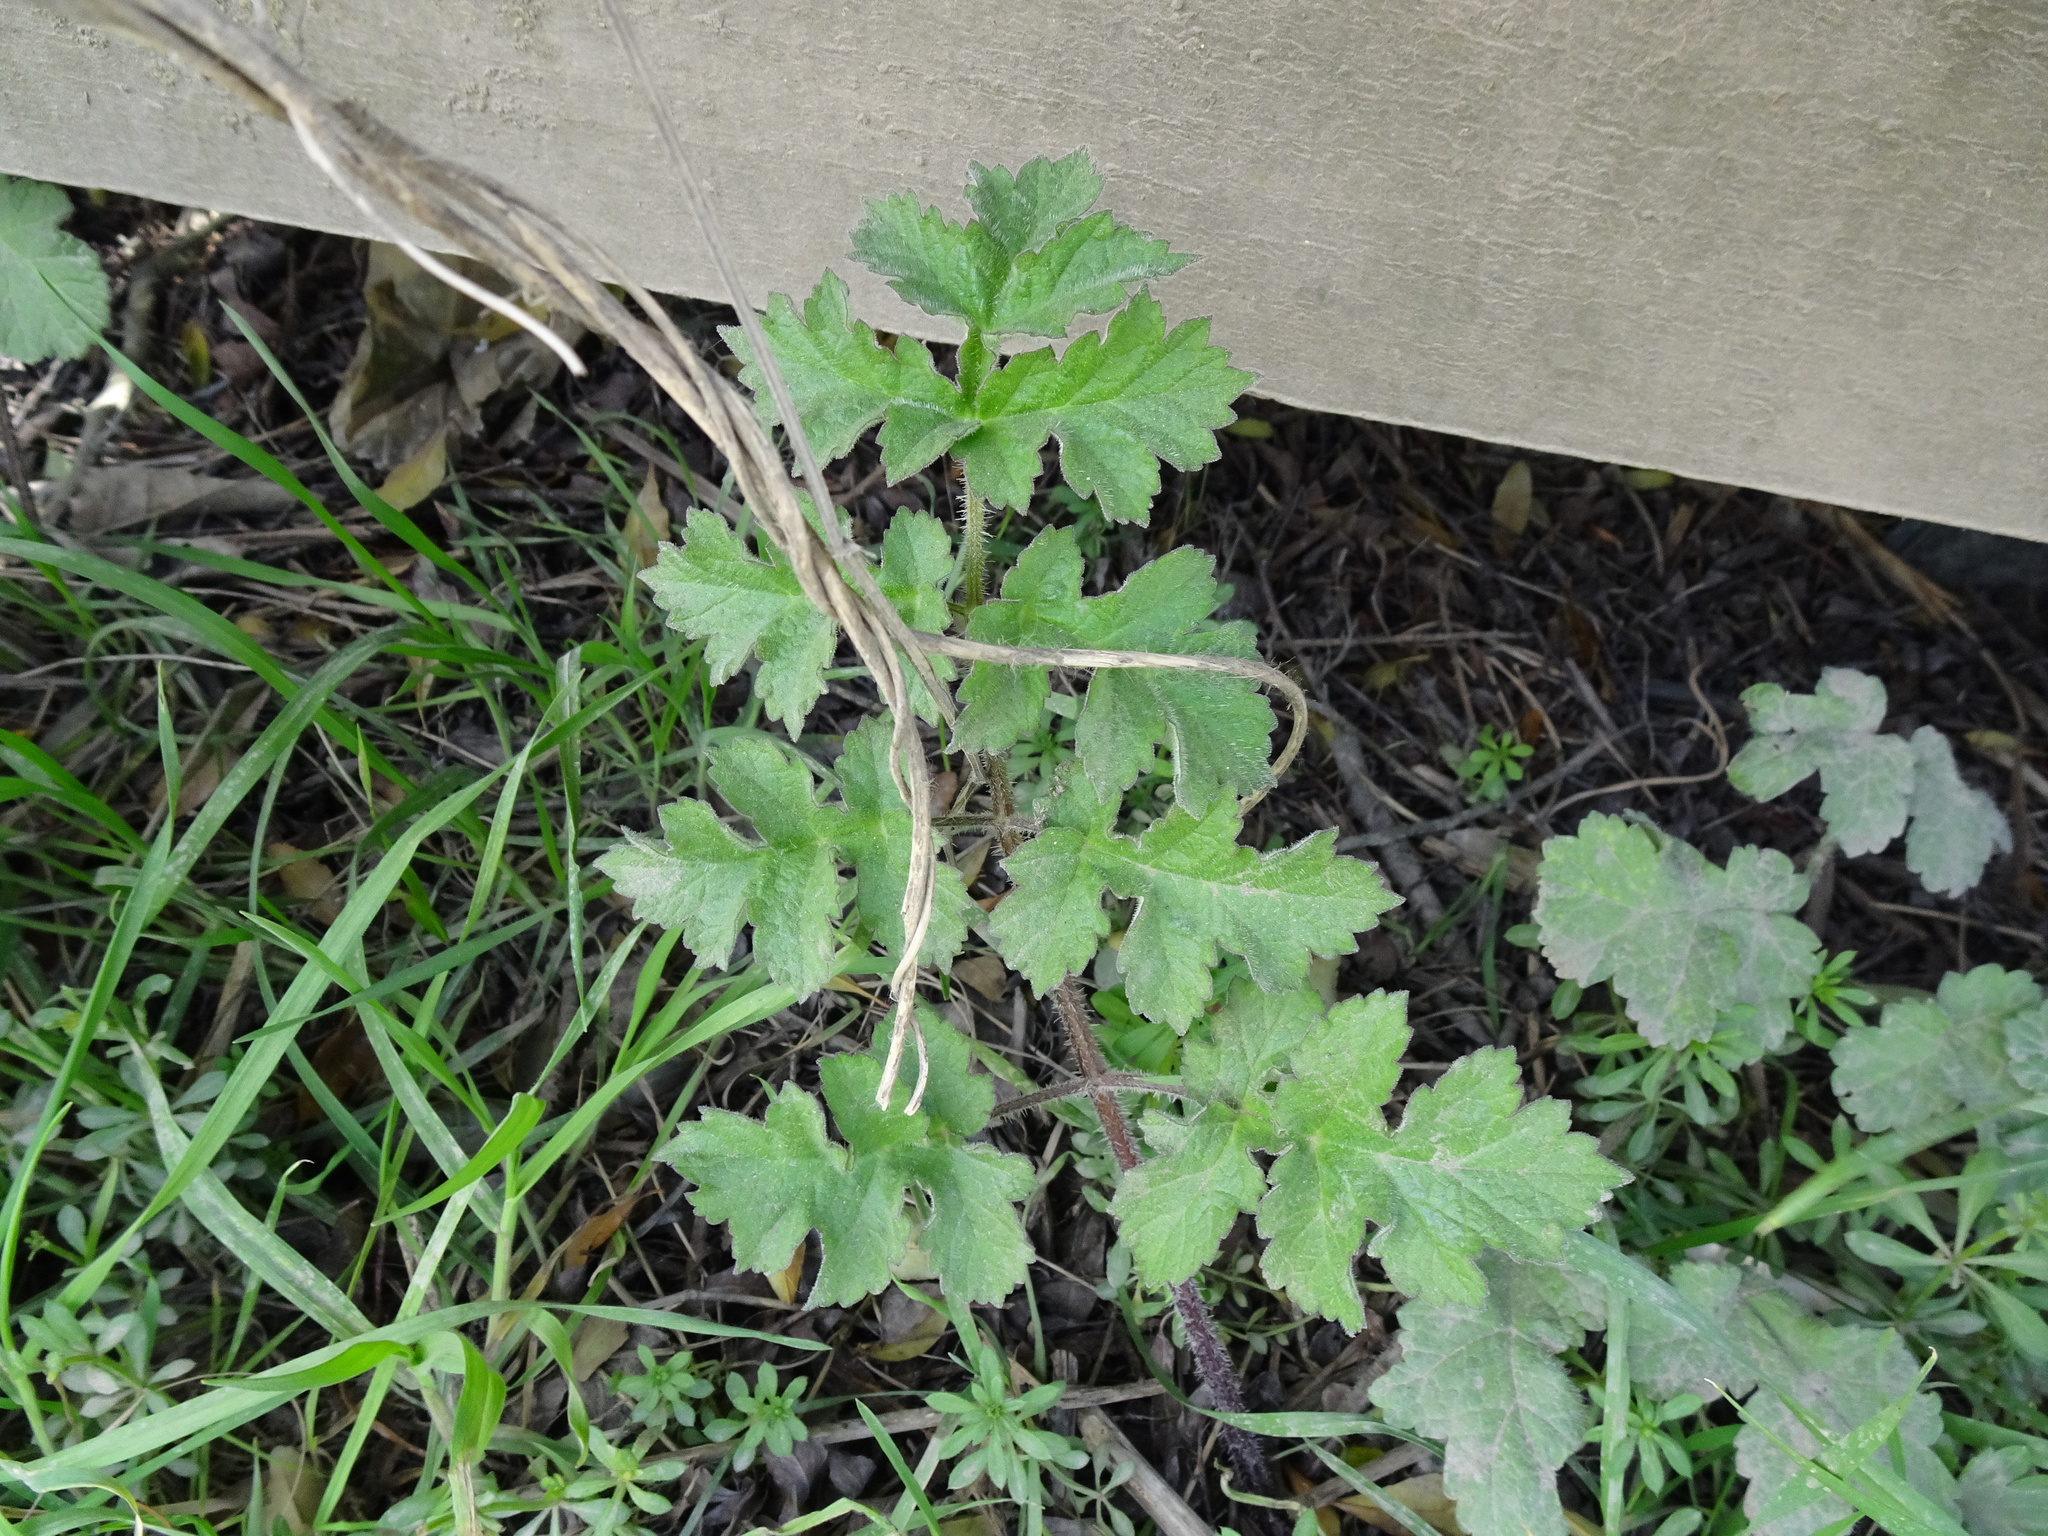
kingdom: Plantae
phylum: Tracheophyta
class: Magnoliopsida
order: Apiales
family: Apiaceae
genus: Heracleum
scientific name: Heracleum sphondylium
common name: Hogweed
